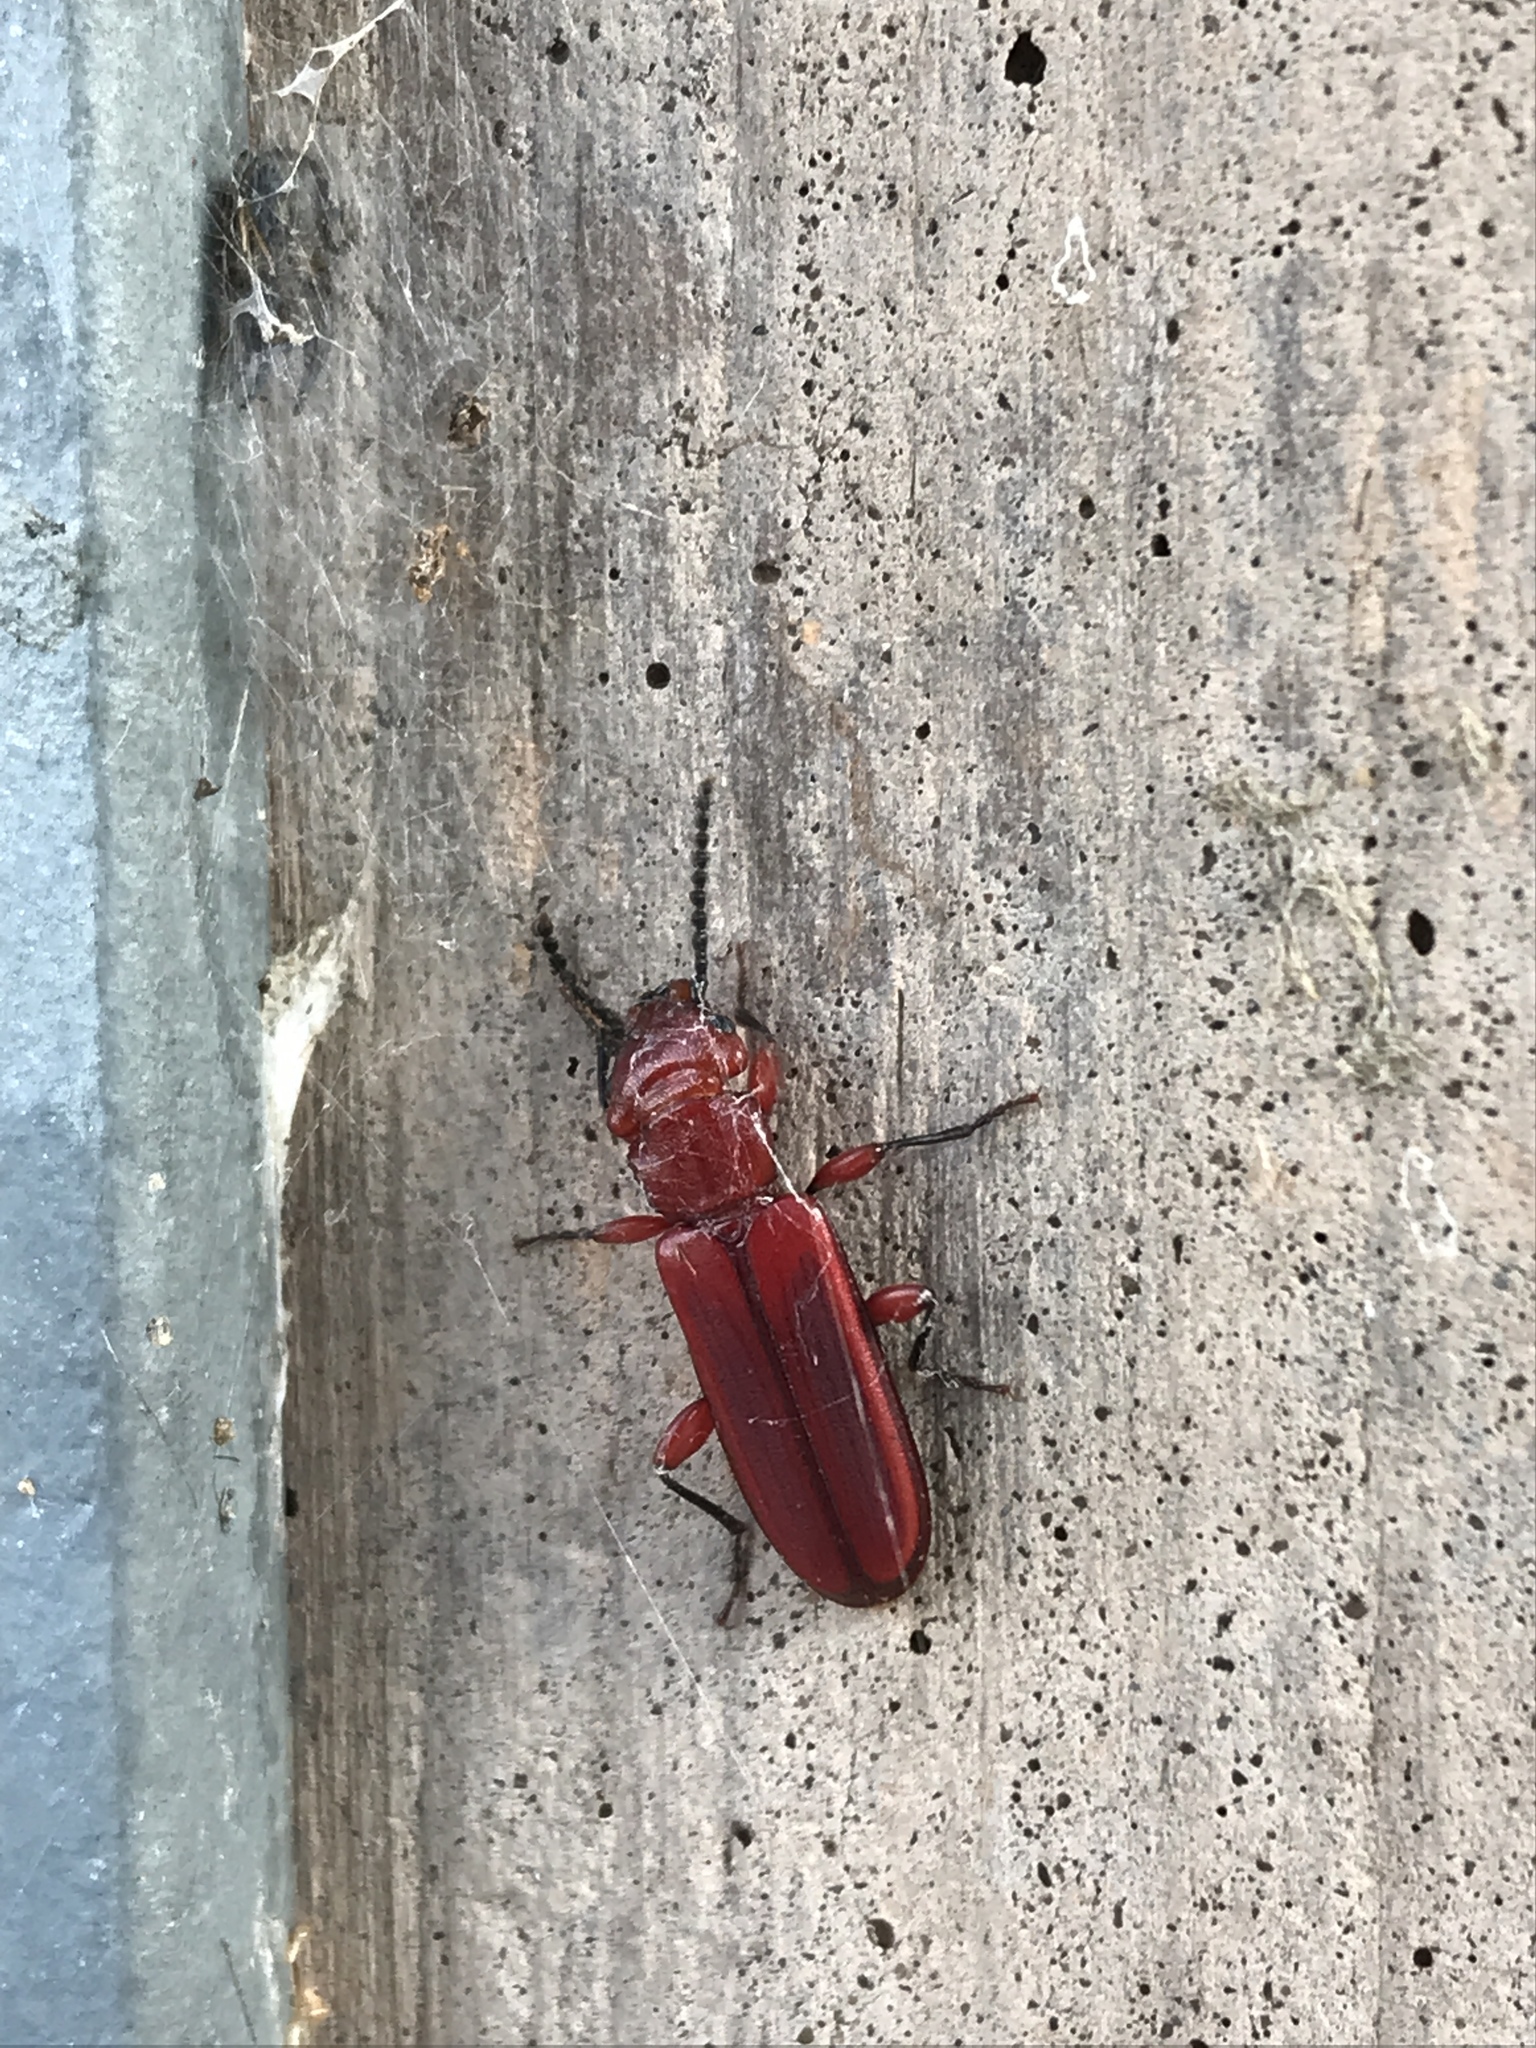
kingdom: Animalia
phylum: Arthropoda
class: Insecta
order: Coleoptera
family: Cucujidae
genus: Cucujus
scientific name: Cucujus clavipes
